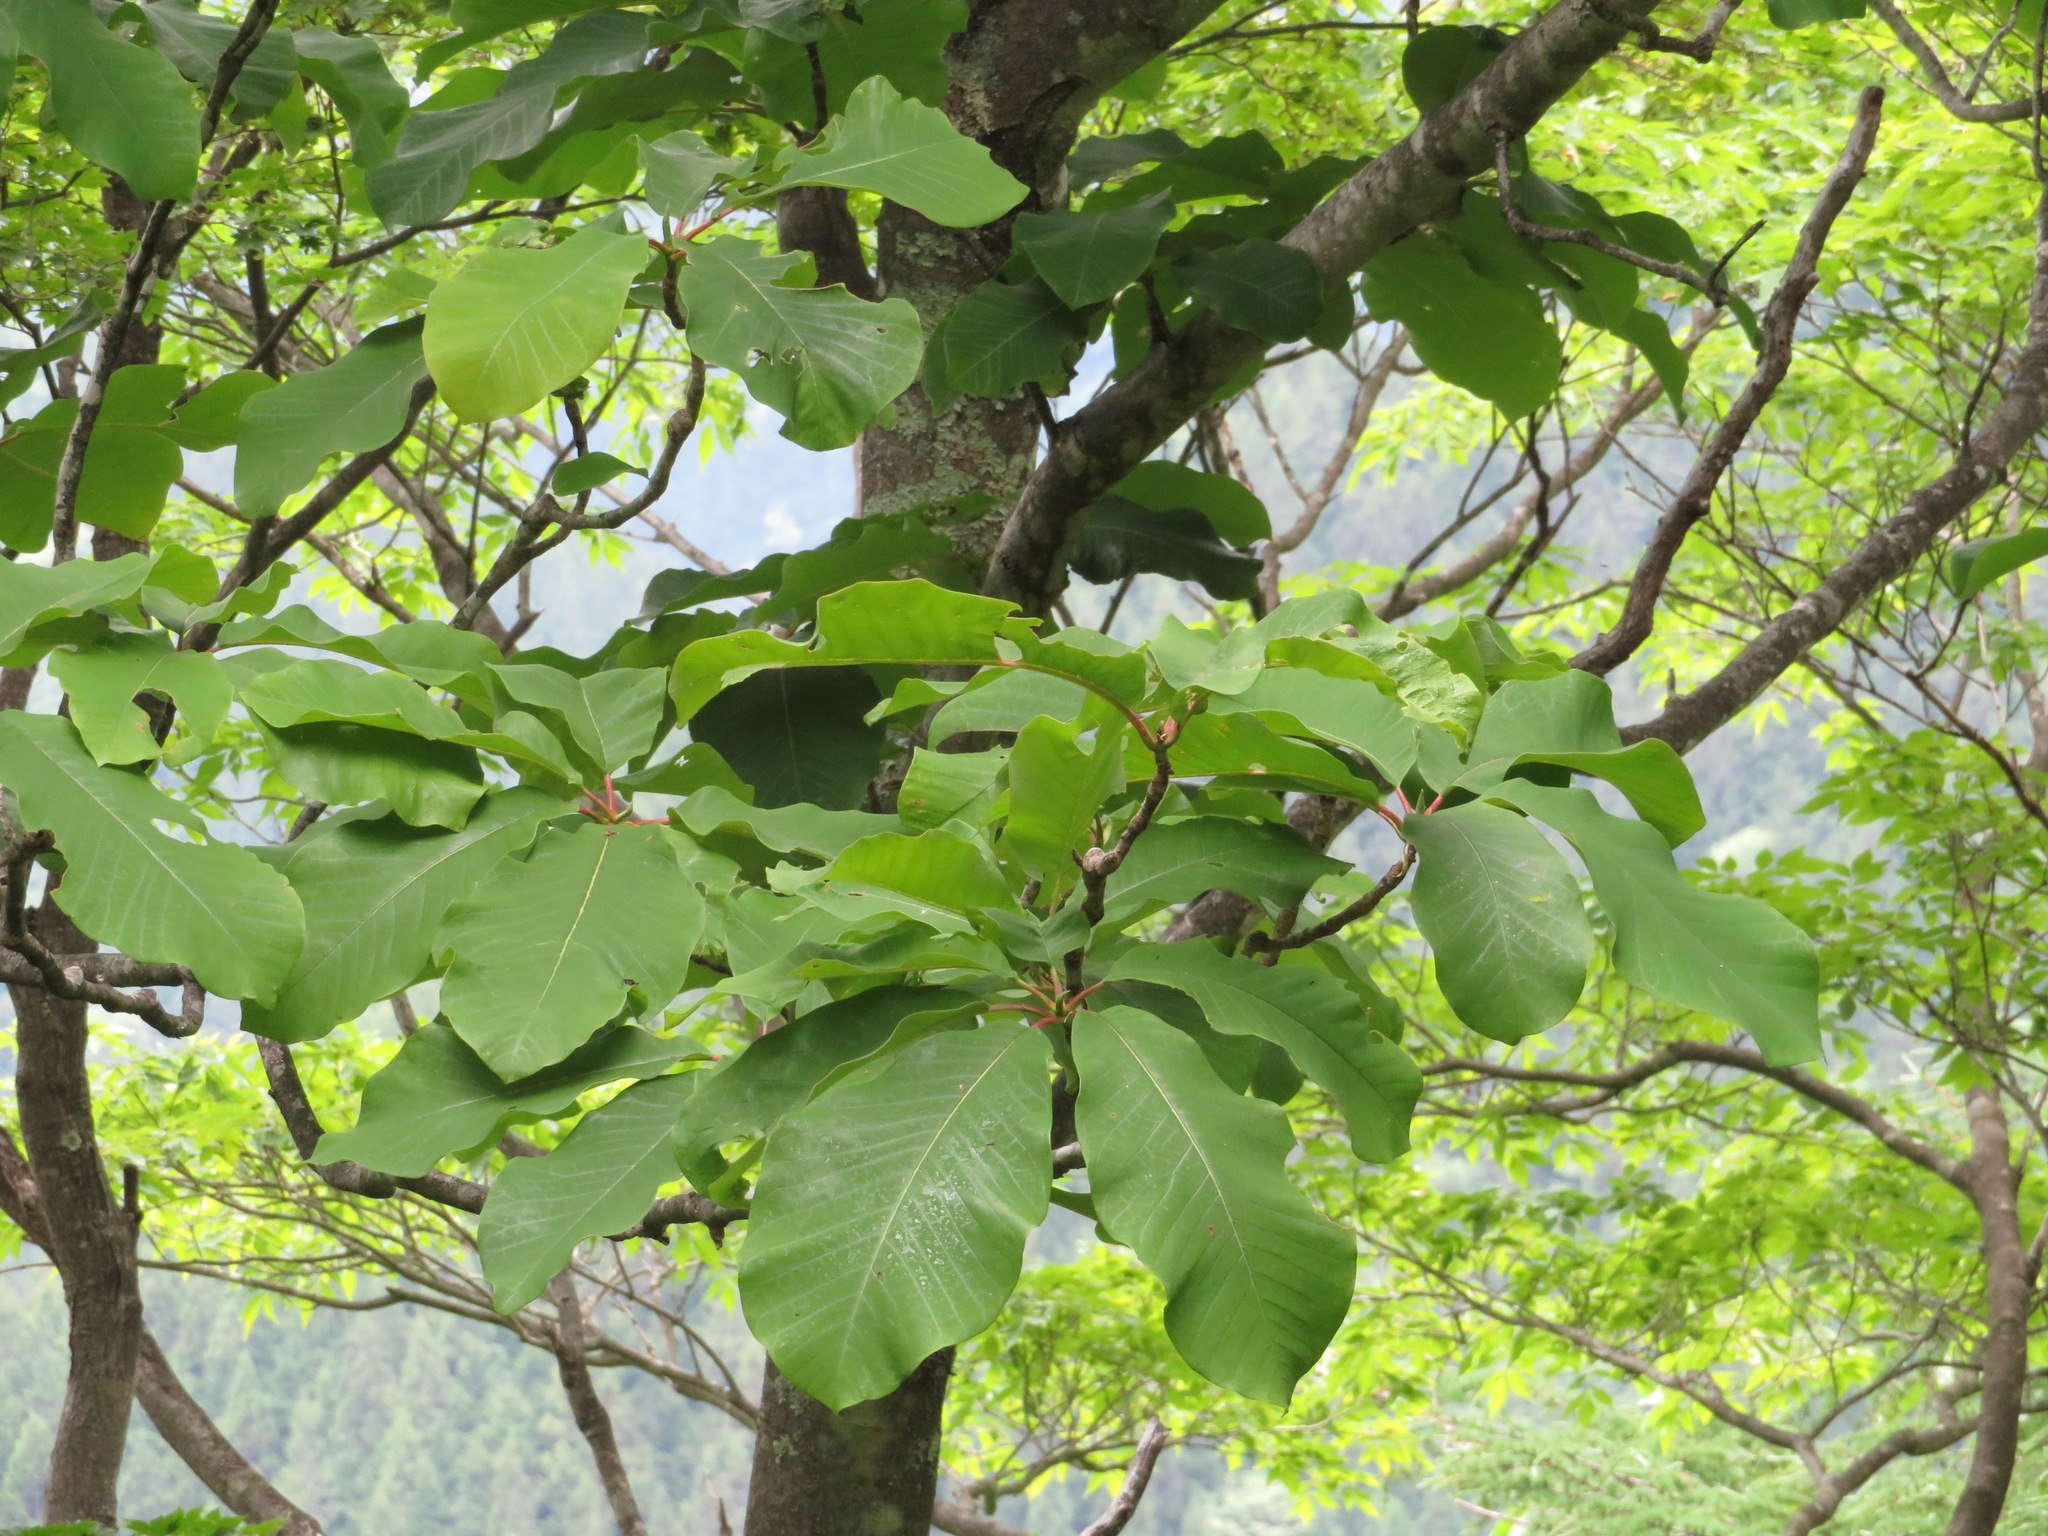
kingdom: Plantae
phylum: Tracheophyta
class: Magnoliopsida
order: Magnoliales
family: Magnoliaceae
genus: Magnolia
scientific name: Magnolia obovata
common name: Japanese whitebark magnolia
